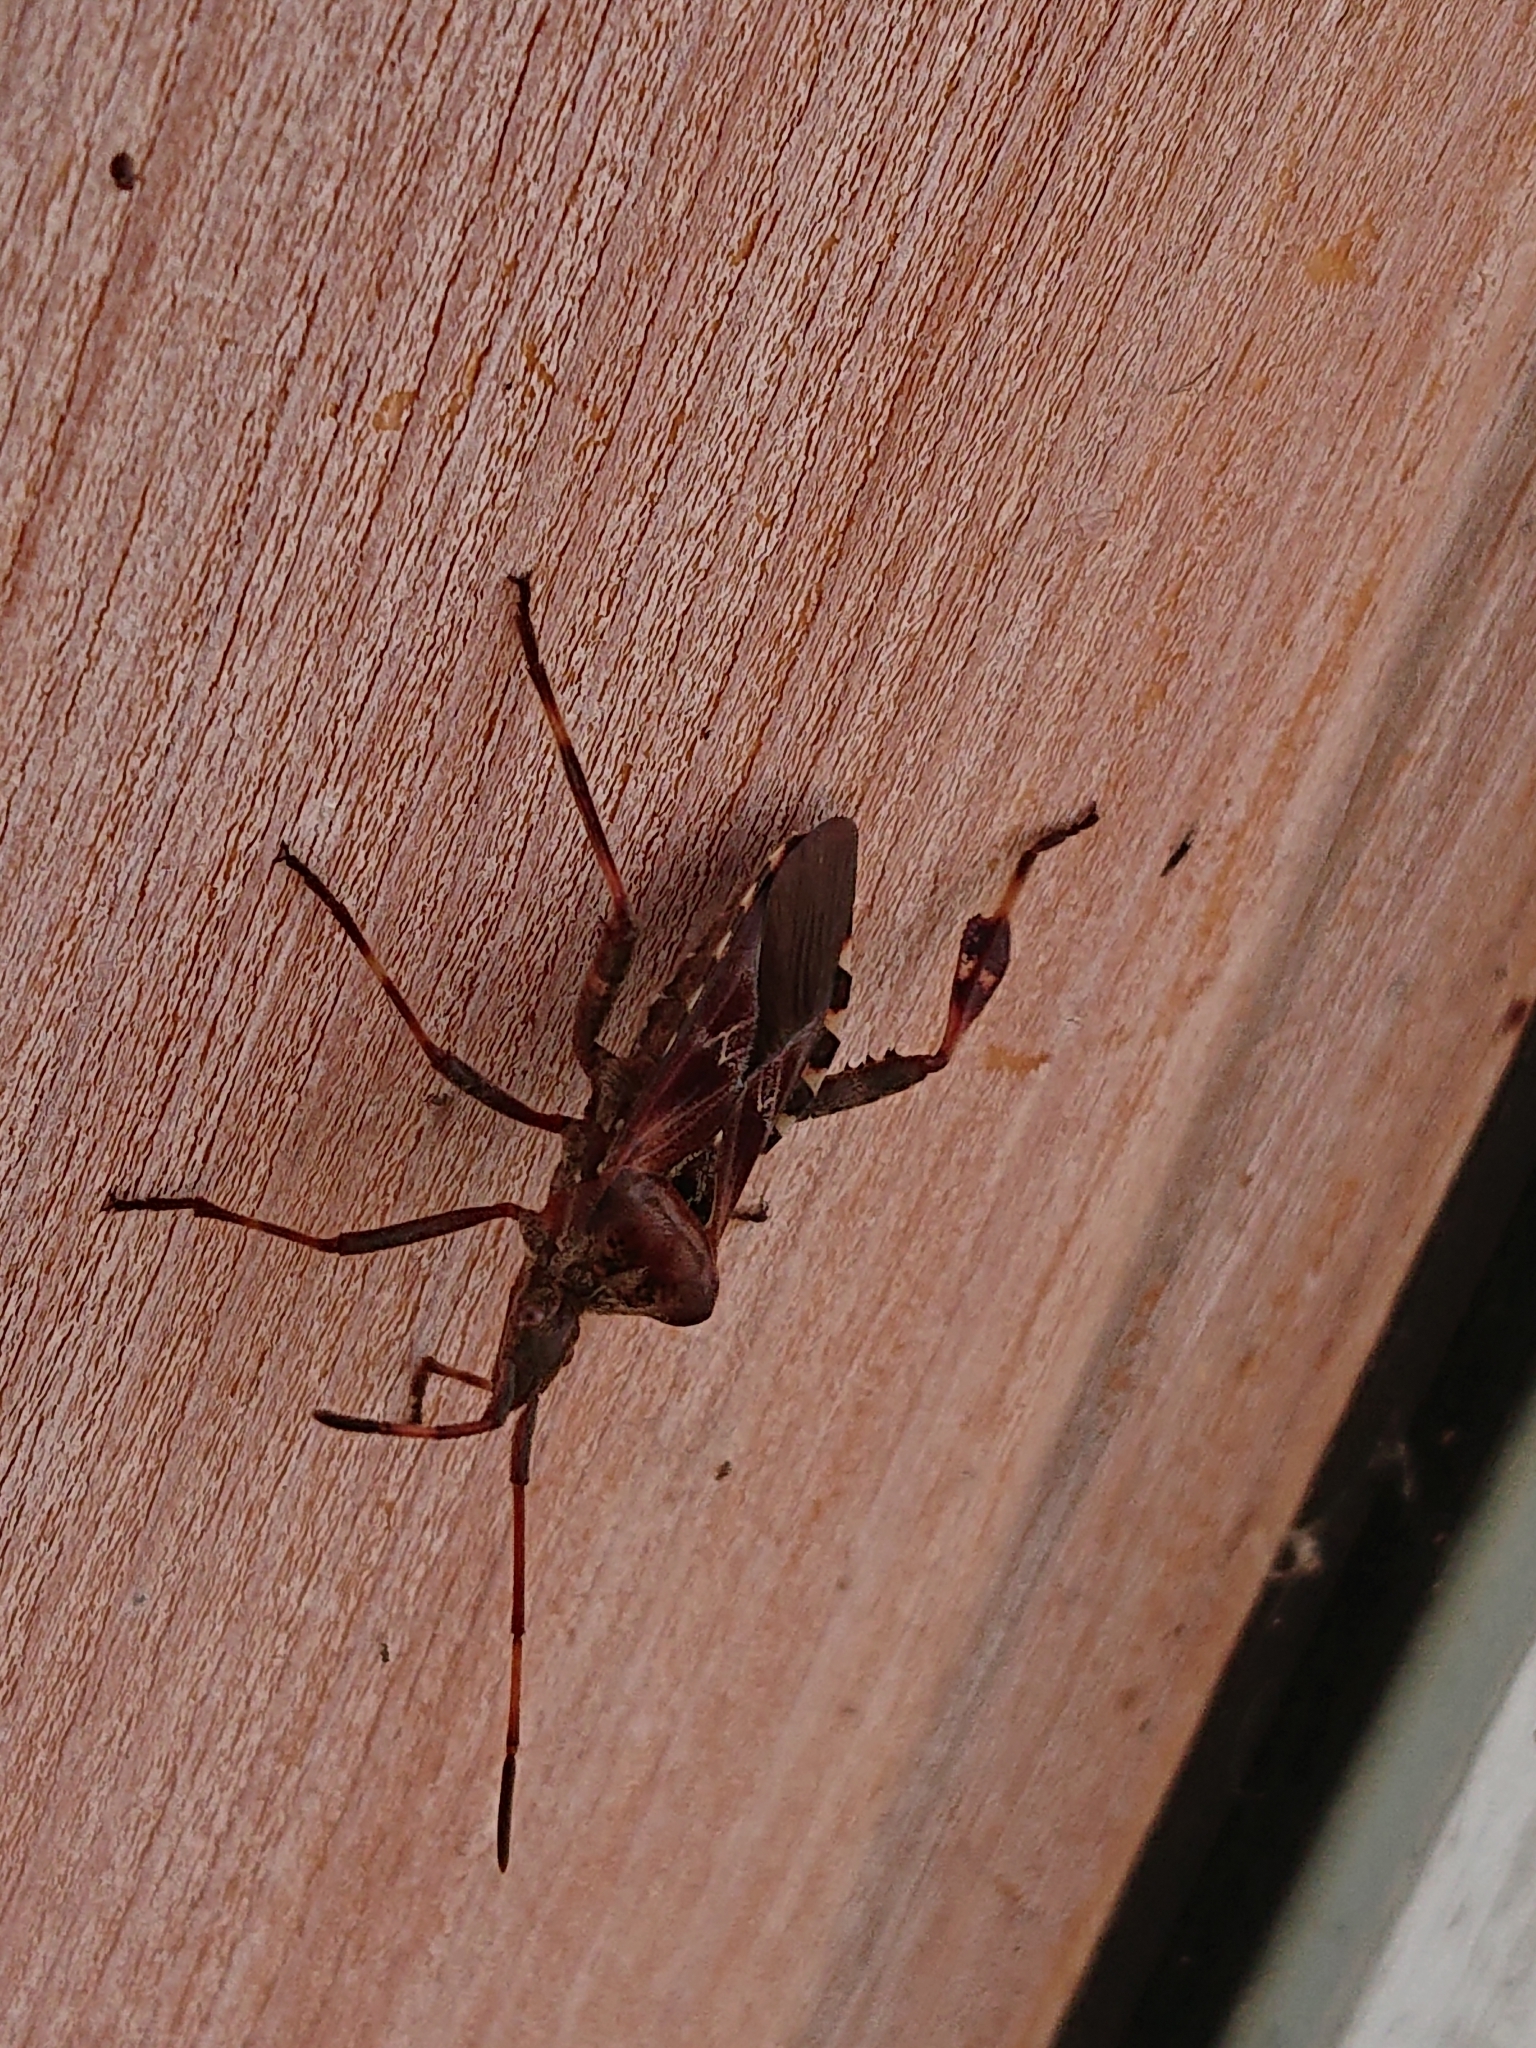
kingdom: Animalia
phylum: Arthropoda
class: Insecta
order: Hemiptera
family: Coreidae
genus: Leptoglossus
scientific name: Leptoglossus occidentalis
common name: Western conifer-seed bug
